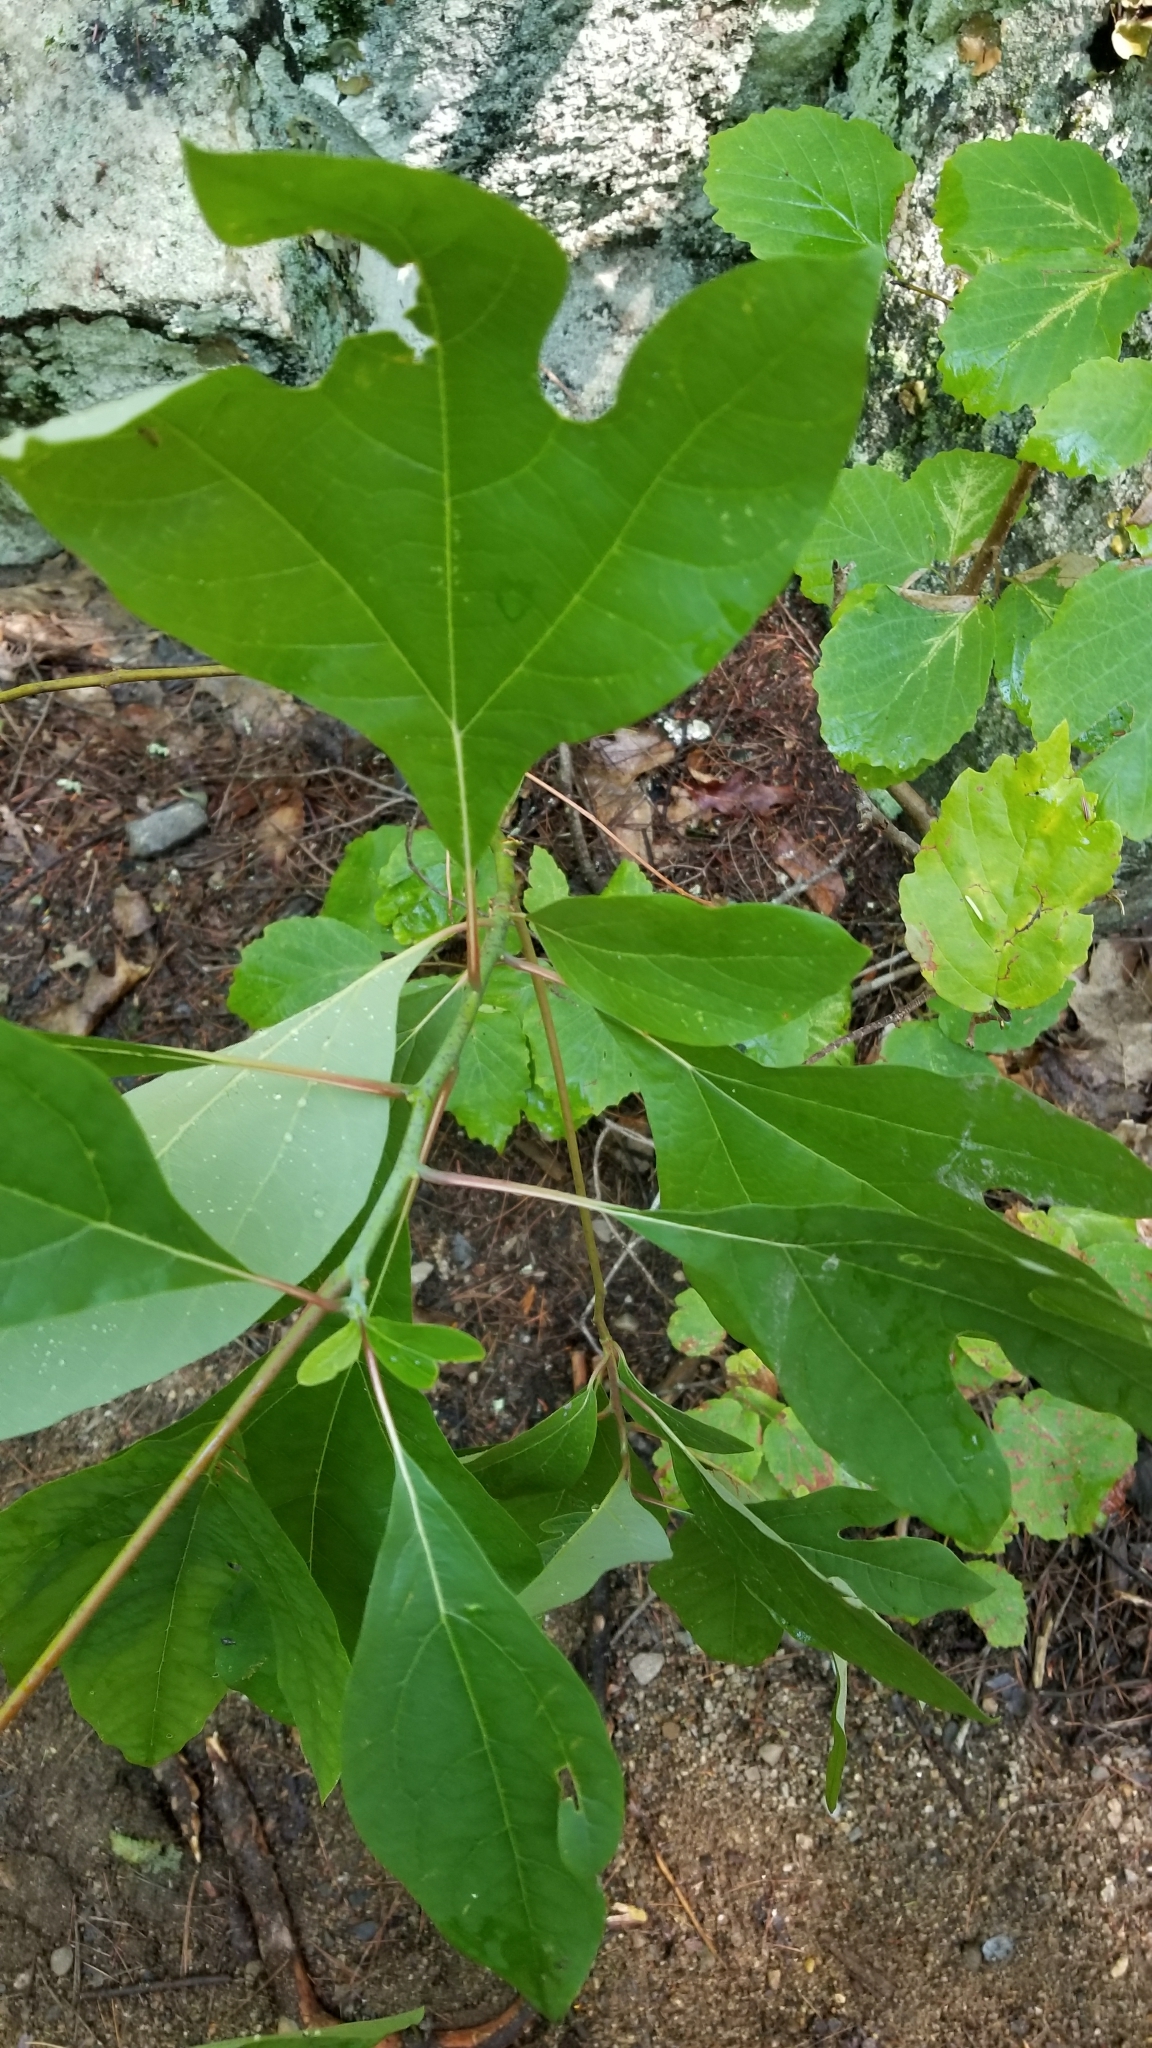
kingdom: Plantae
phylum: Tracheophyta
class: Magnoliopsida
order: Laurales
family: Lauraceae
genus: Sassafras
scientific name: Sassafras albidum
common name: Sassafras
